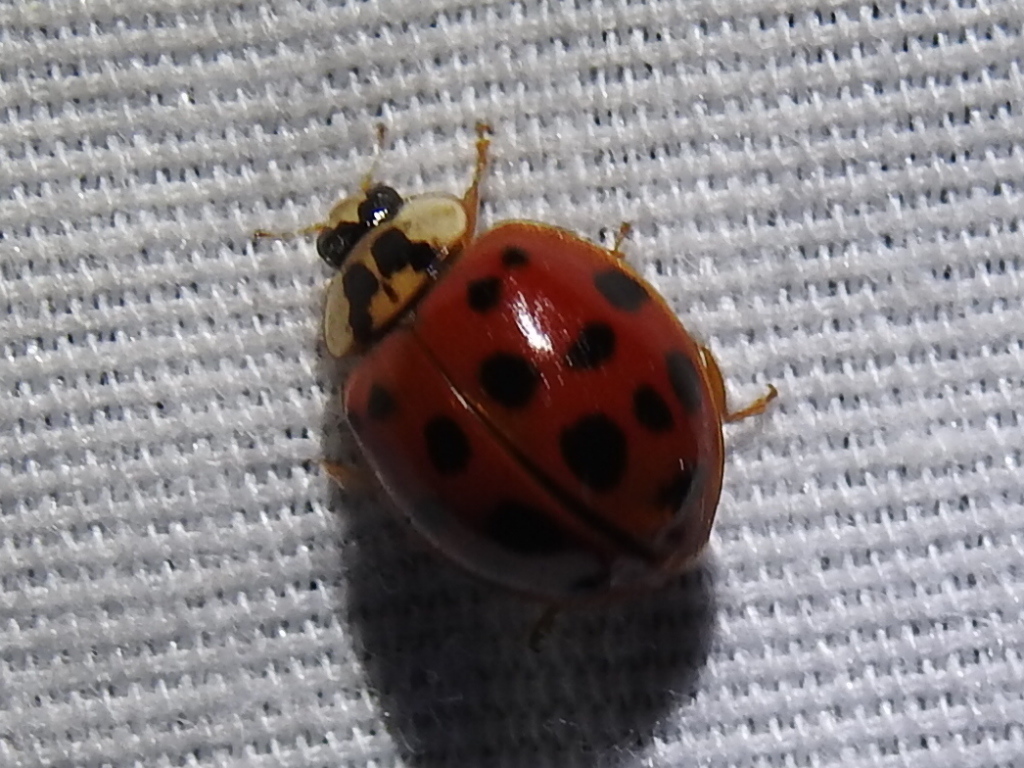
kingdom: Animalia
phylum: Arthropoda
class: Insecta
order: Coleoptera
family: Coccinellidae
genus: Harmonia
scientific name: Harmonia axyridis
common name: Harlequin ladybird
